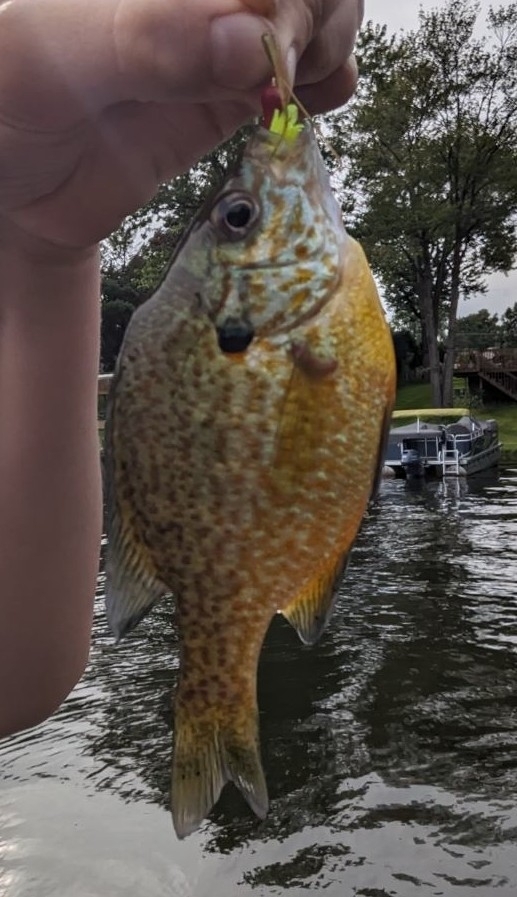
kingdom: Animalia
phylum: Chordata
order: Perciformes
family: Centrarchidae
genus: Lepomis
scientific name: Lepomis
